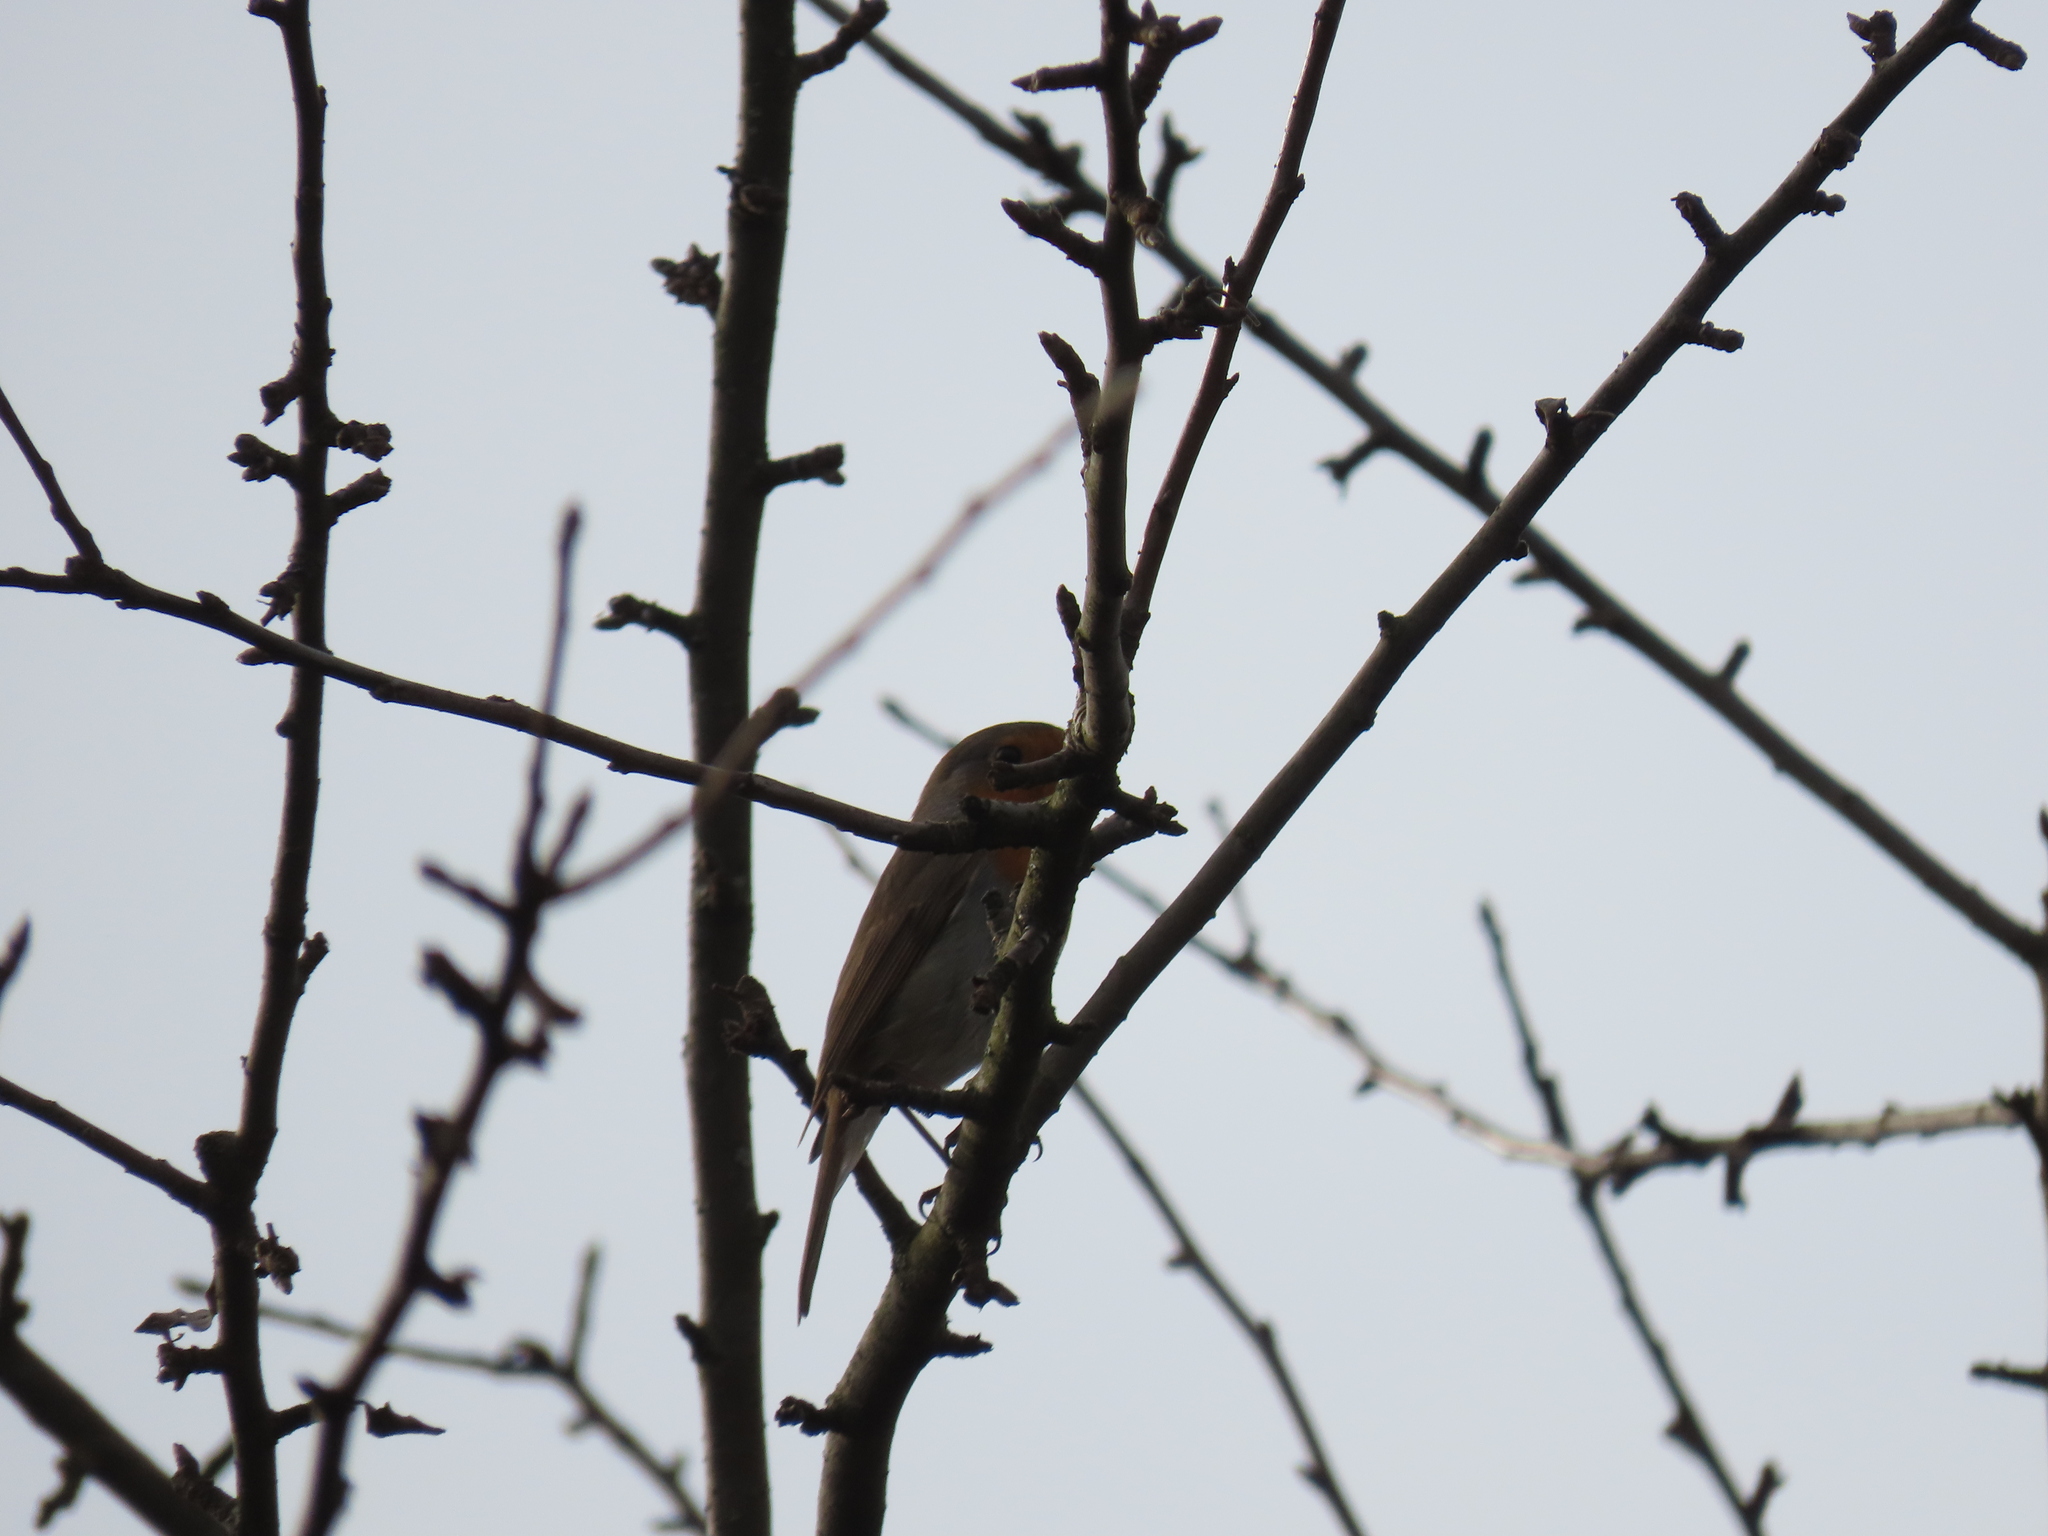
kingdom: Animalia
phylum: Chordata
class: Aves
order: Passeriformes
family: Muscicapidae
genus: Erithacus
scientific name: Erithacus rubecula
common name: European robin
